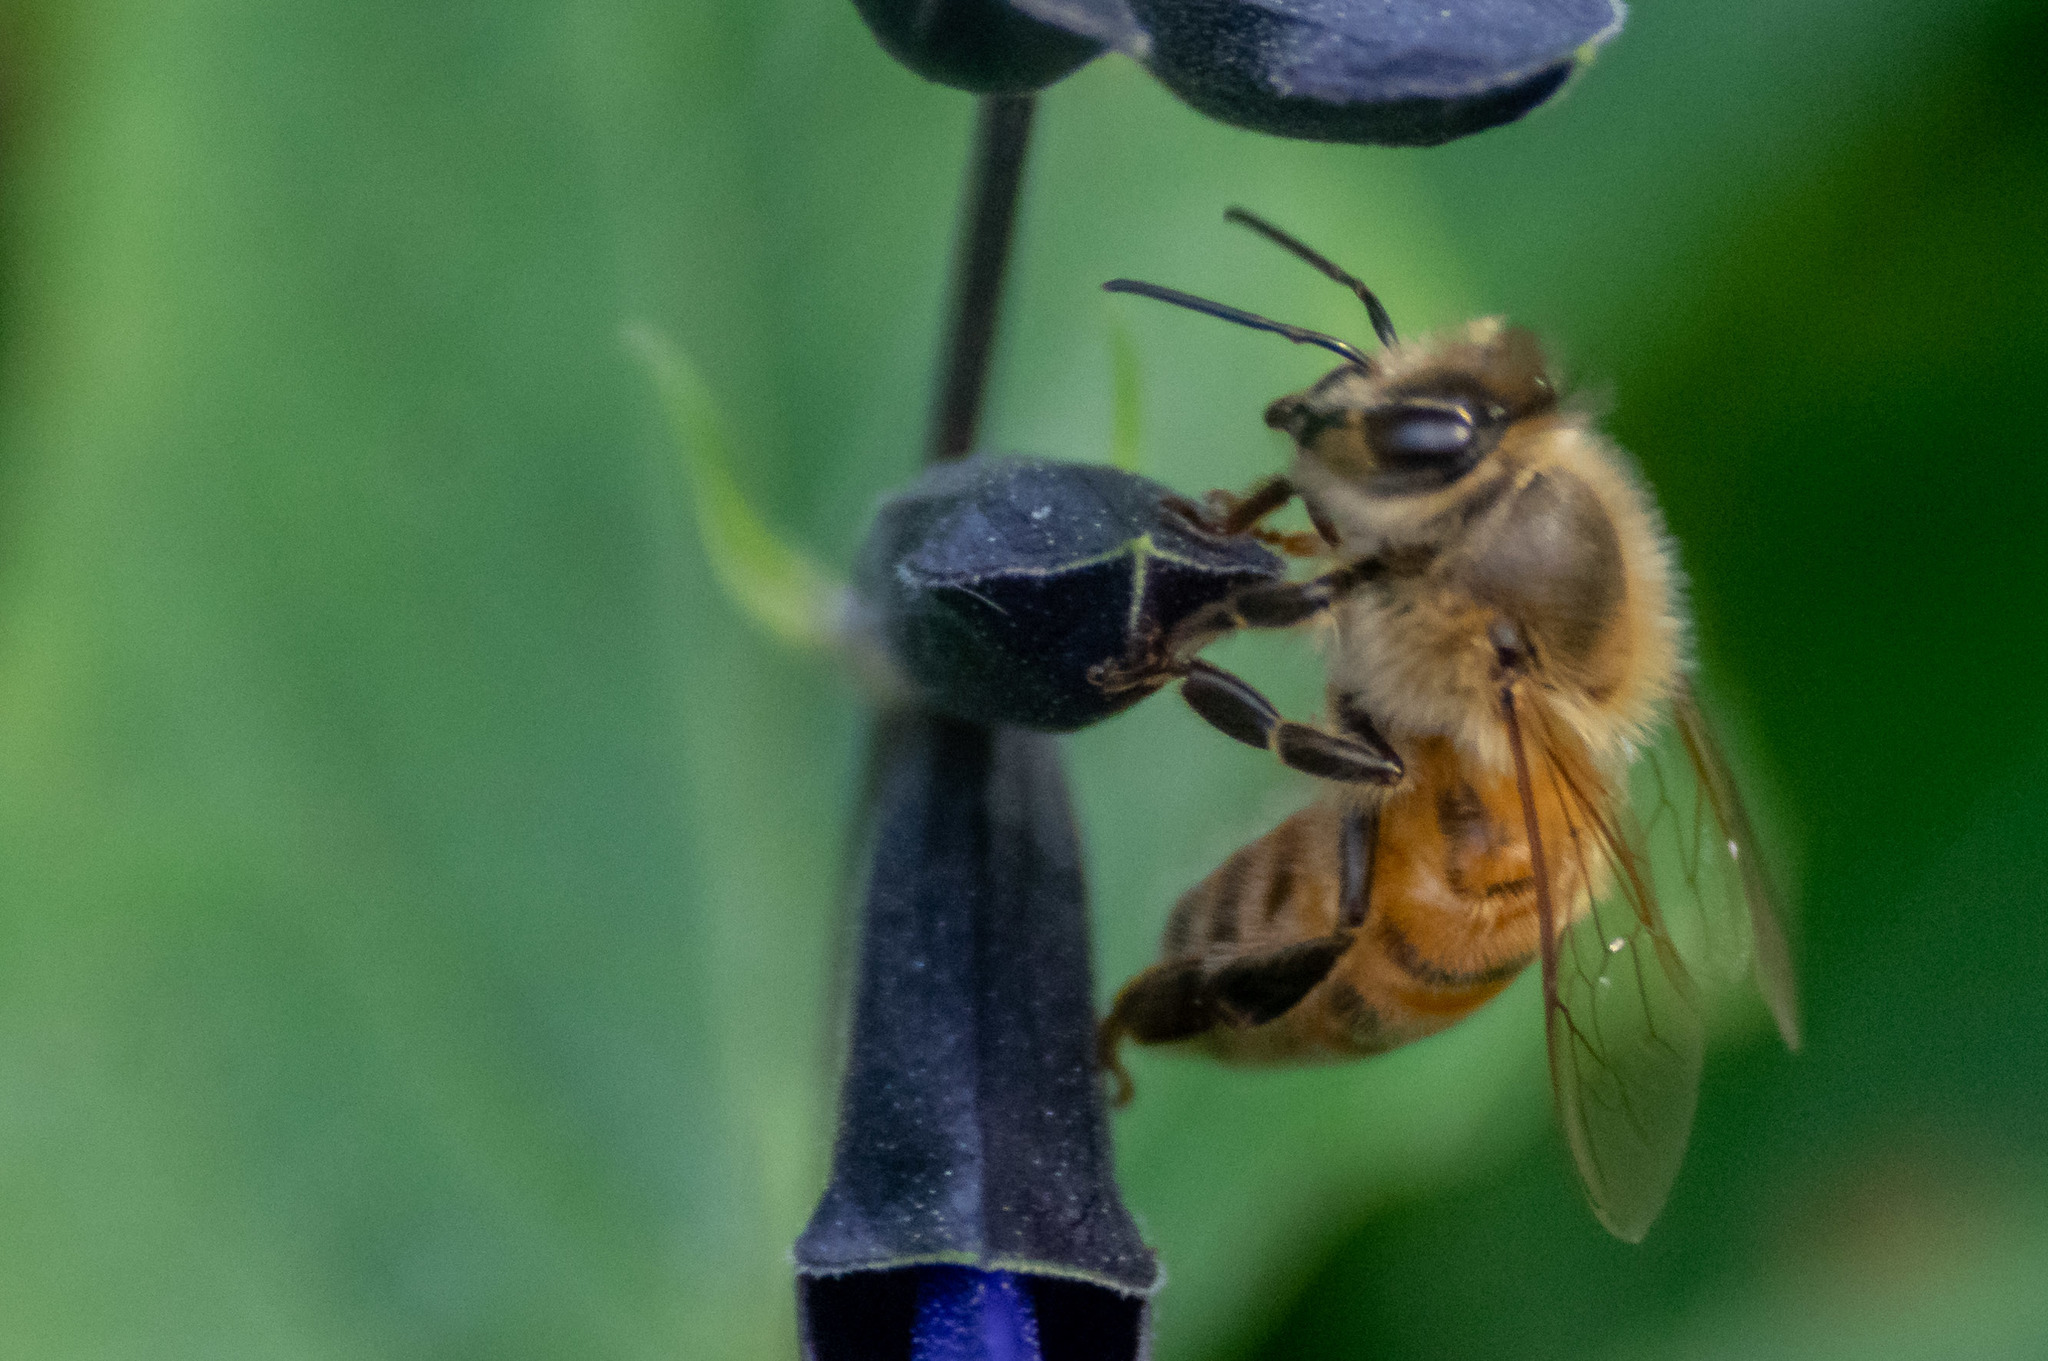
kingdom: Animalia
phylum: Arthropoda
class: Insecta
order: Hymenoptera
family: Apidae
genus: Apis
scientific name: Apis mellifera
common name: Honey bee
